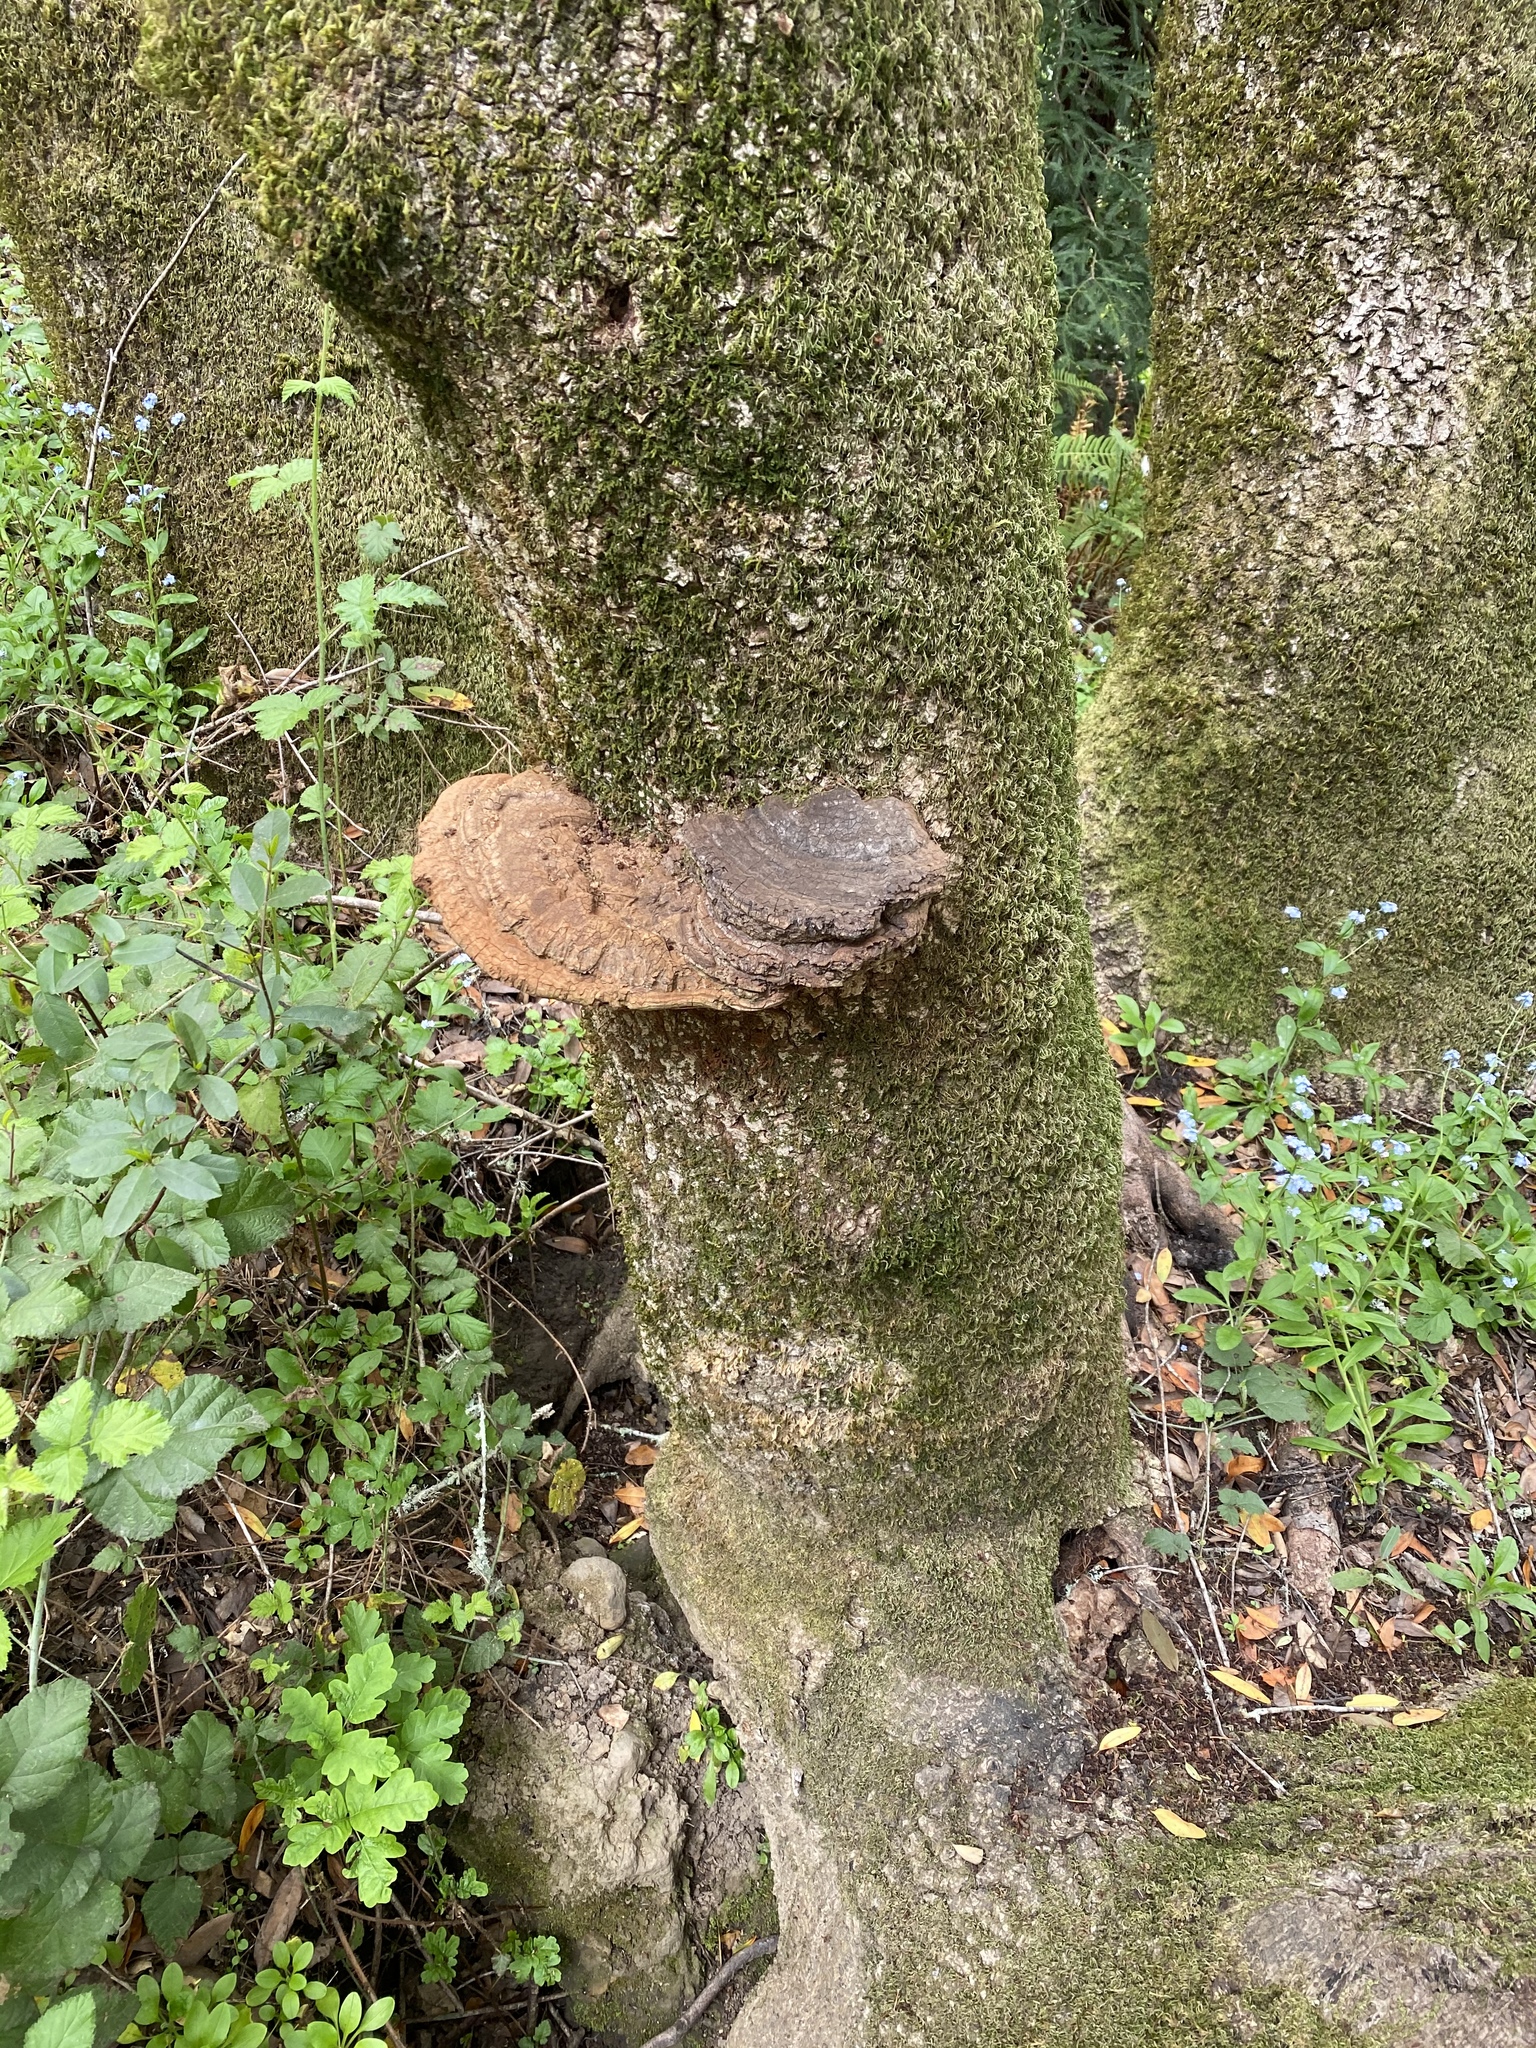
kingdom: Fungi
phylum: Basidiomycota
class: Agaricomycetes
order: Polyporales
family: Polyporaceae
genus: Ganoderma
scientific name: Ganoderma brownii
